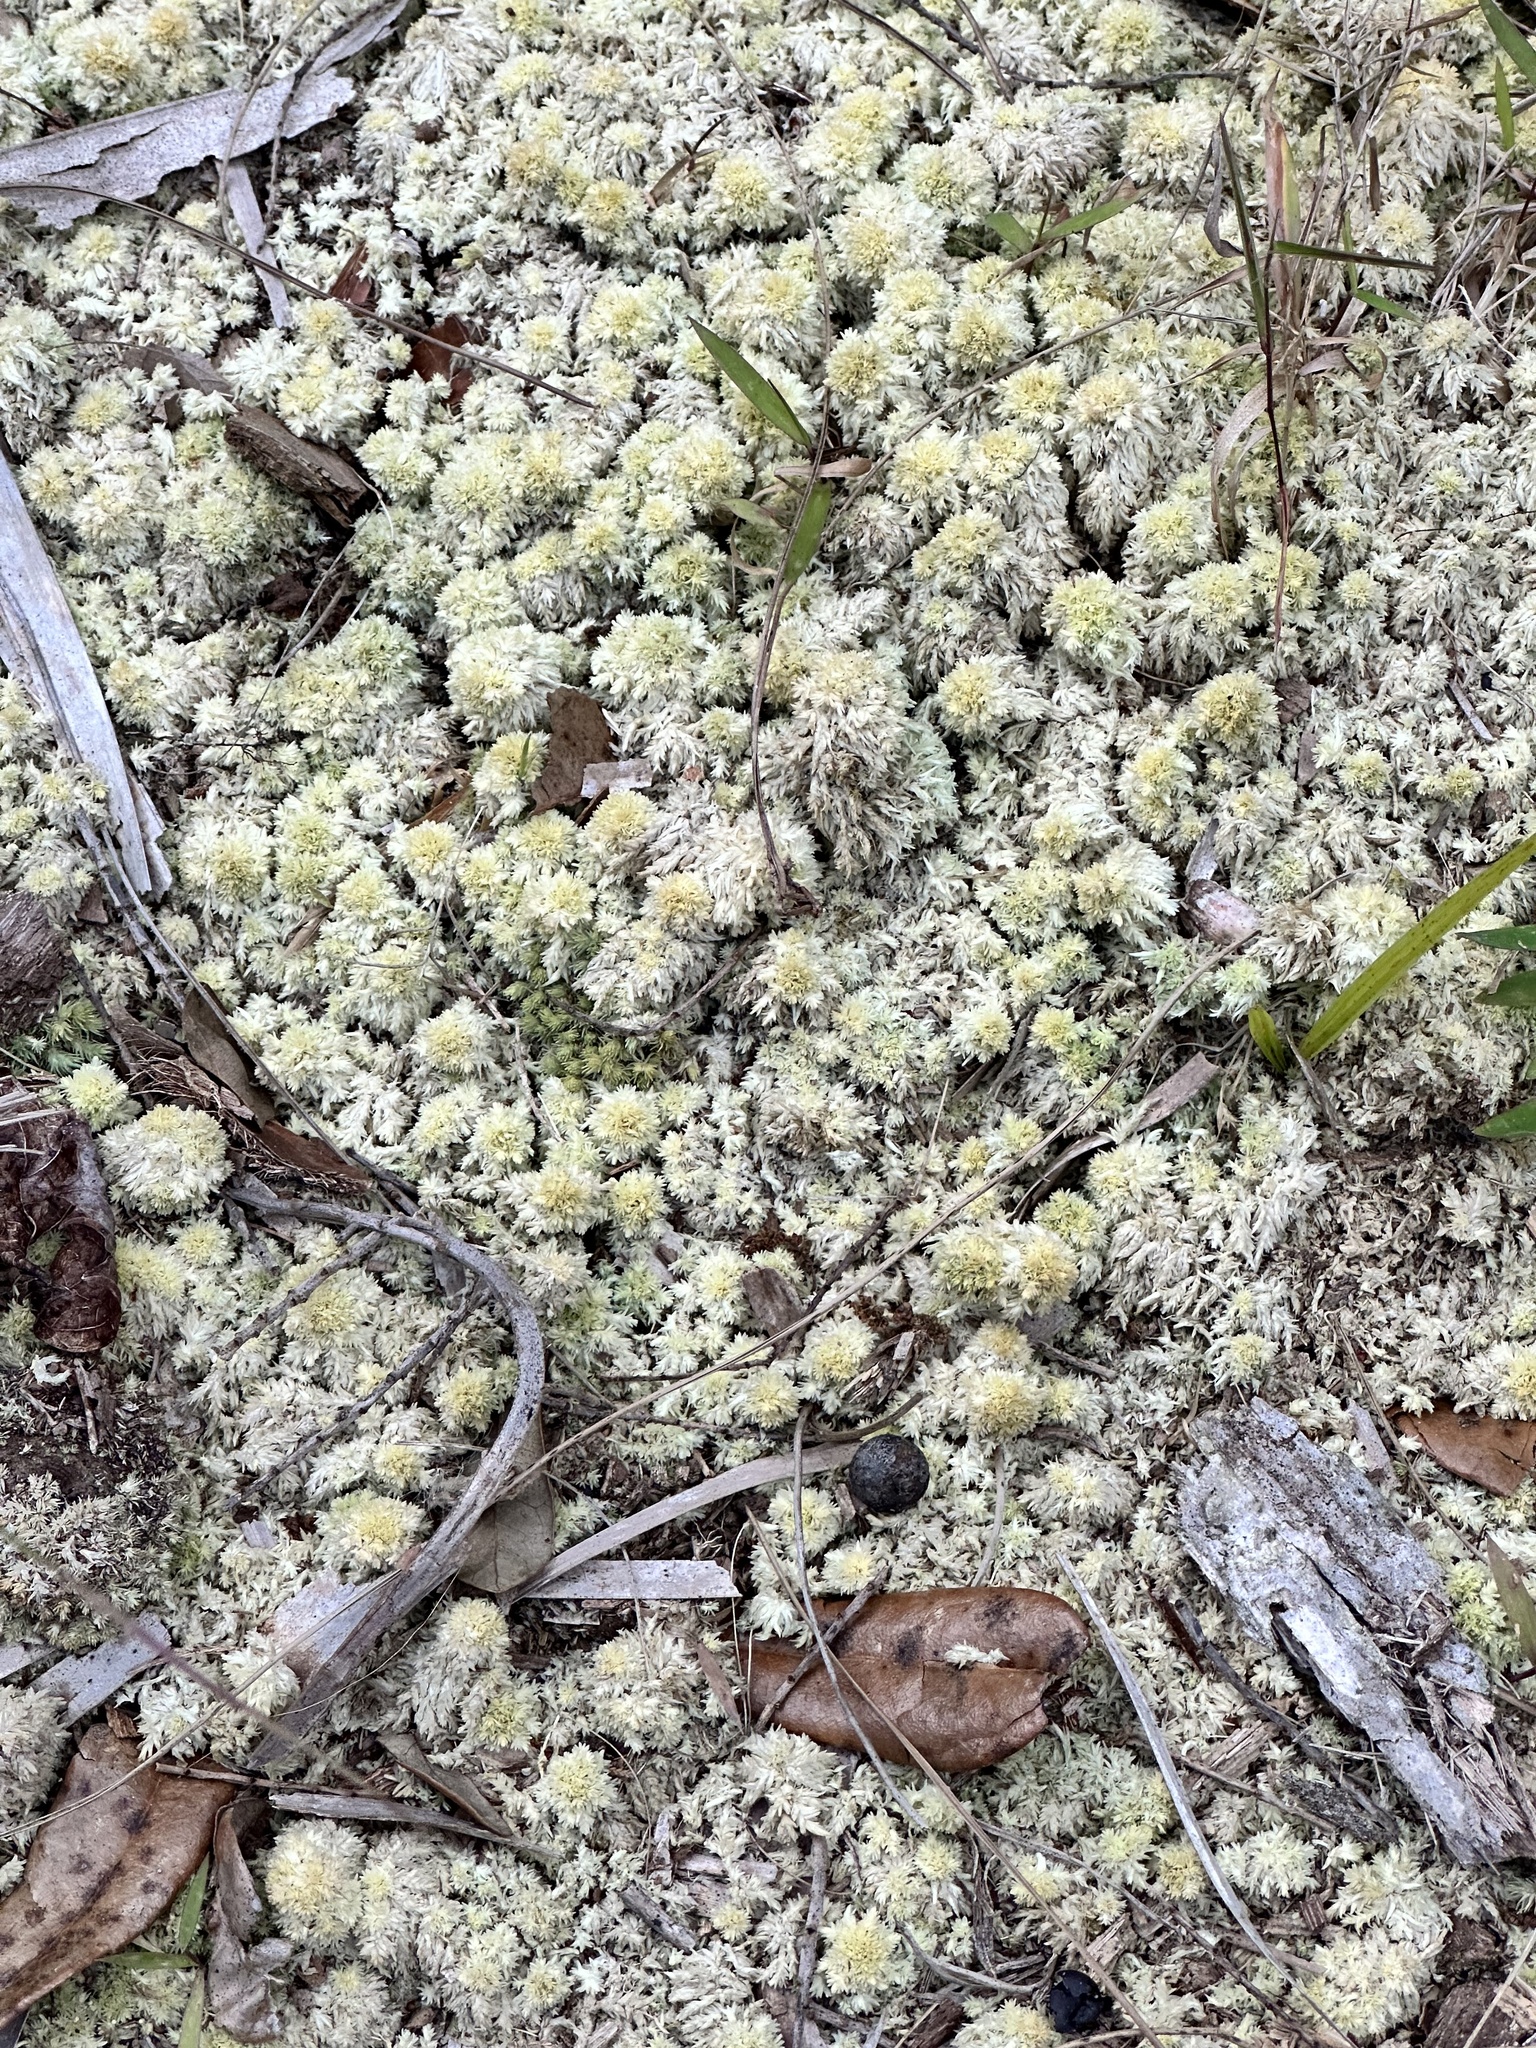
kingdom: Plantae
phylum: Bryophyta
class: Sphagnopsida
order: Sphagnales
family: Sphagnaceae
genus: Sphagnum
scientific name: Sphagnum strictum
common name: Pale bog-moss
